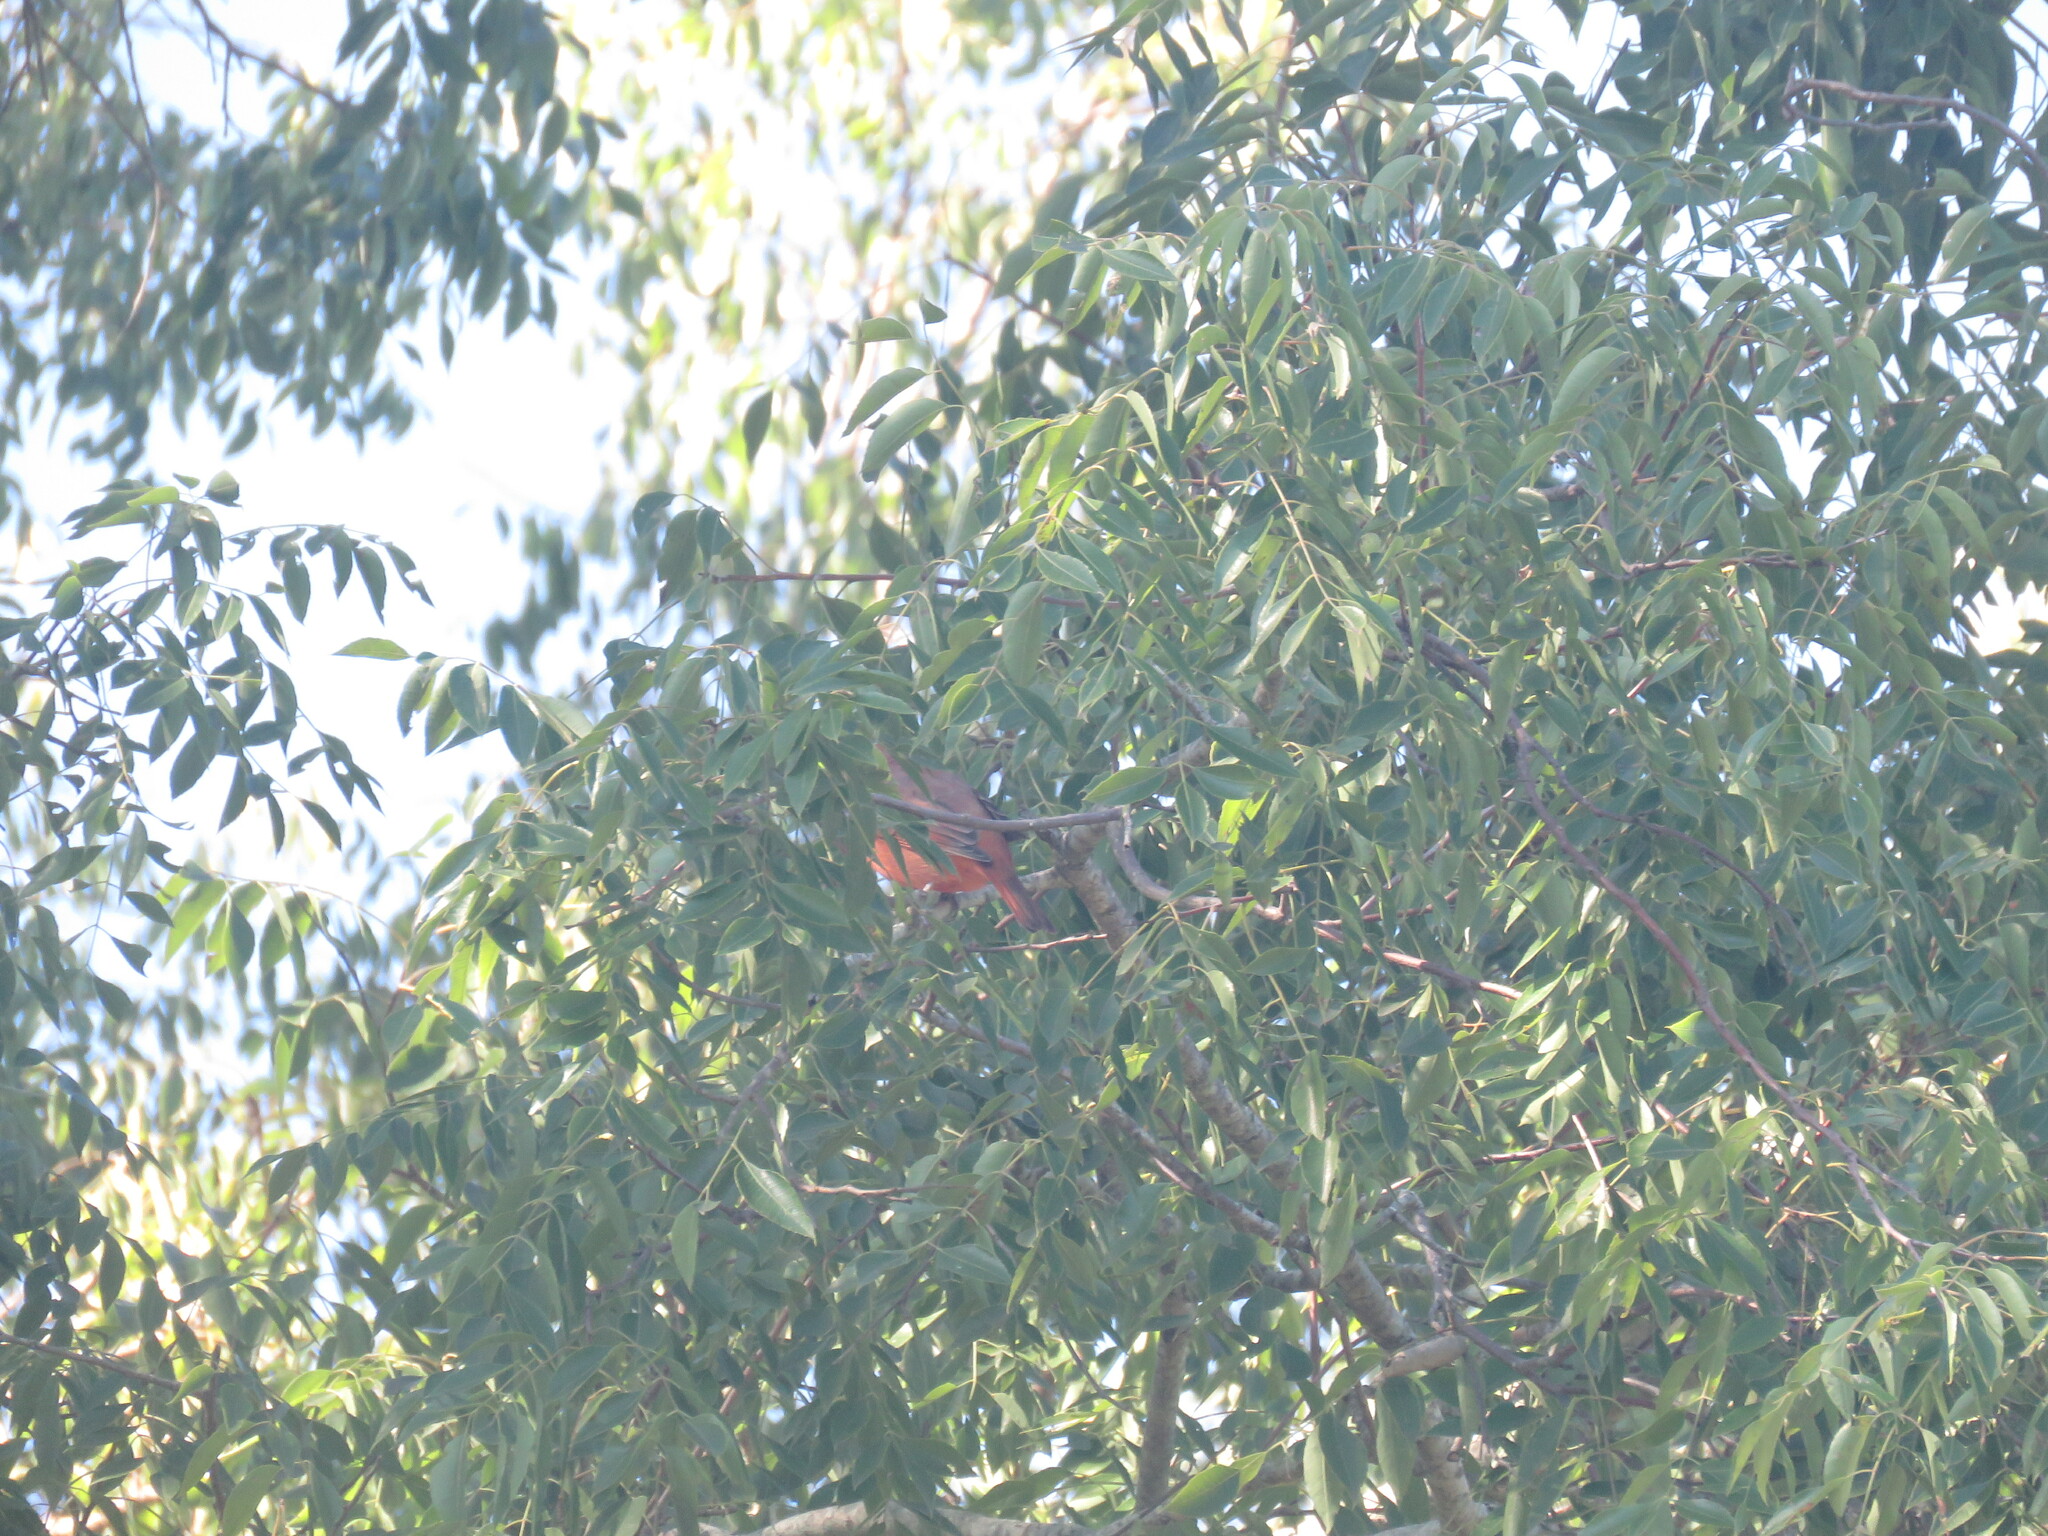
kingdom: Animalia
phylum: Chordata
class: Aves
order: Passeriformes
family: Cardinalidae
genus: Piranga
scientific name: Piranga flava
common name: Red tanager
